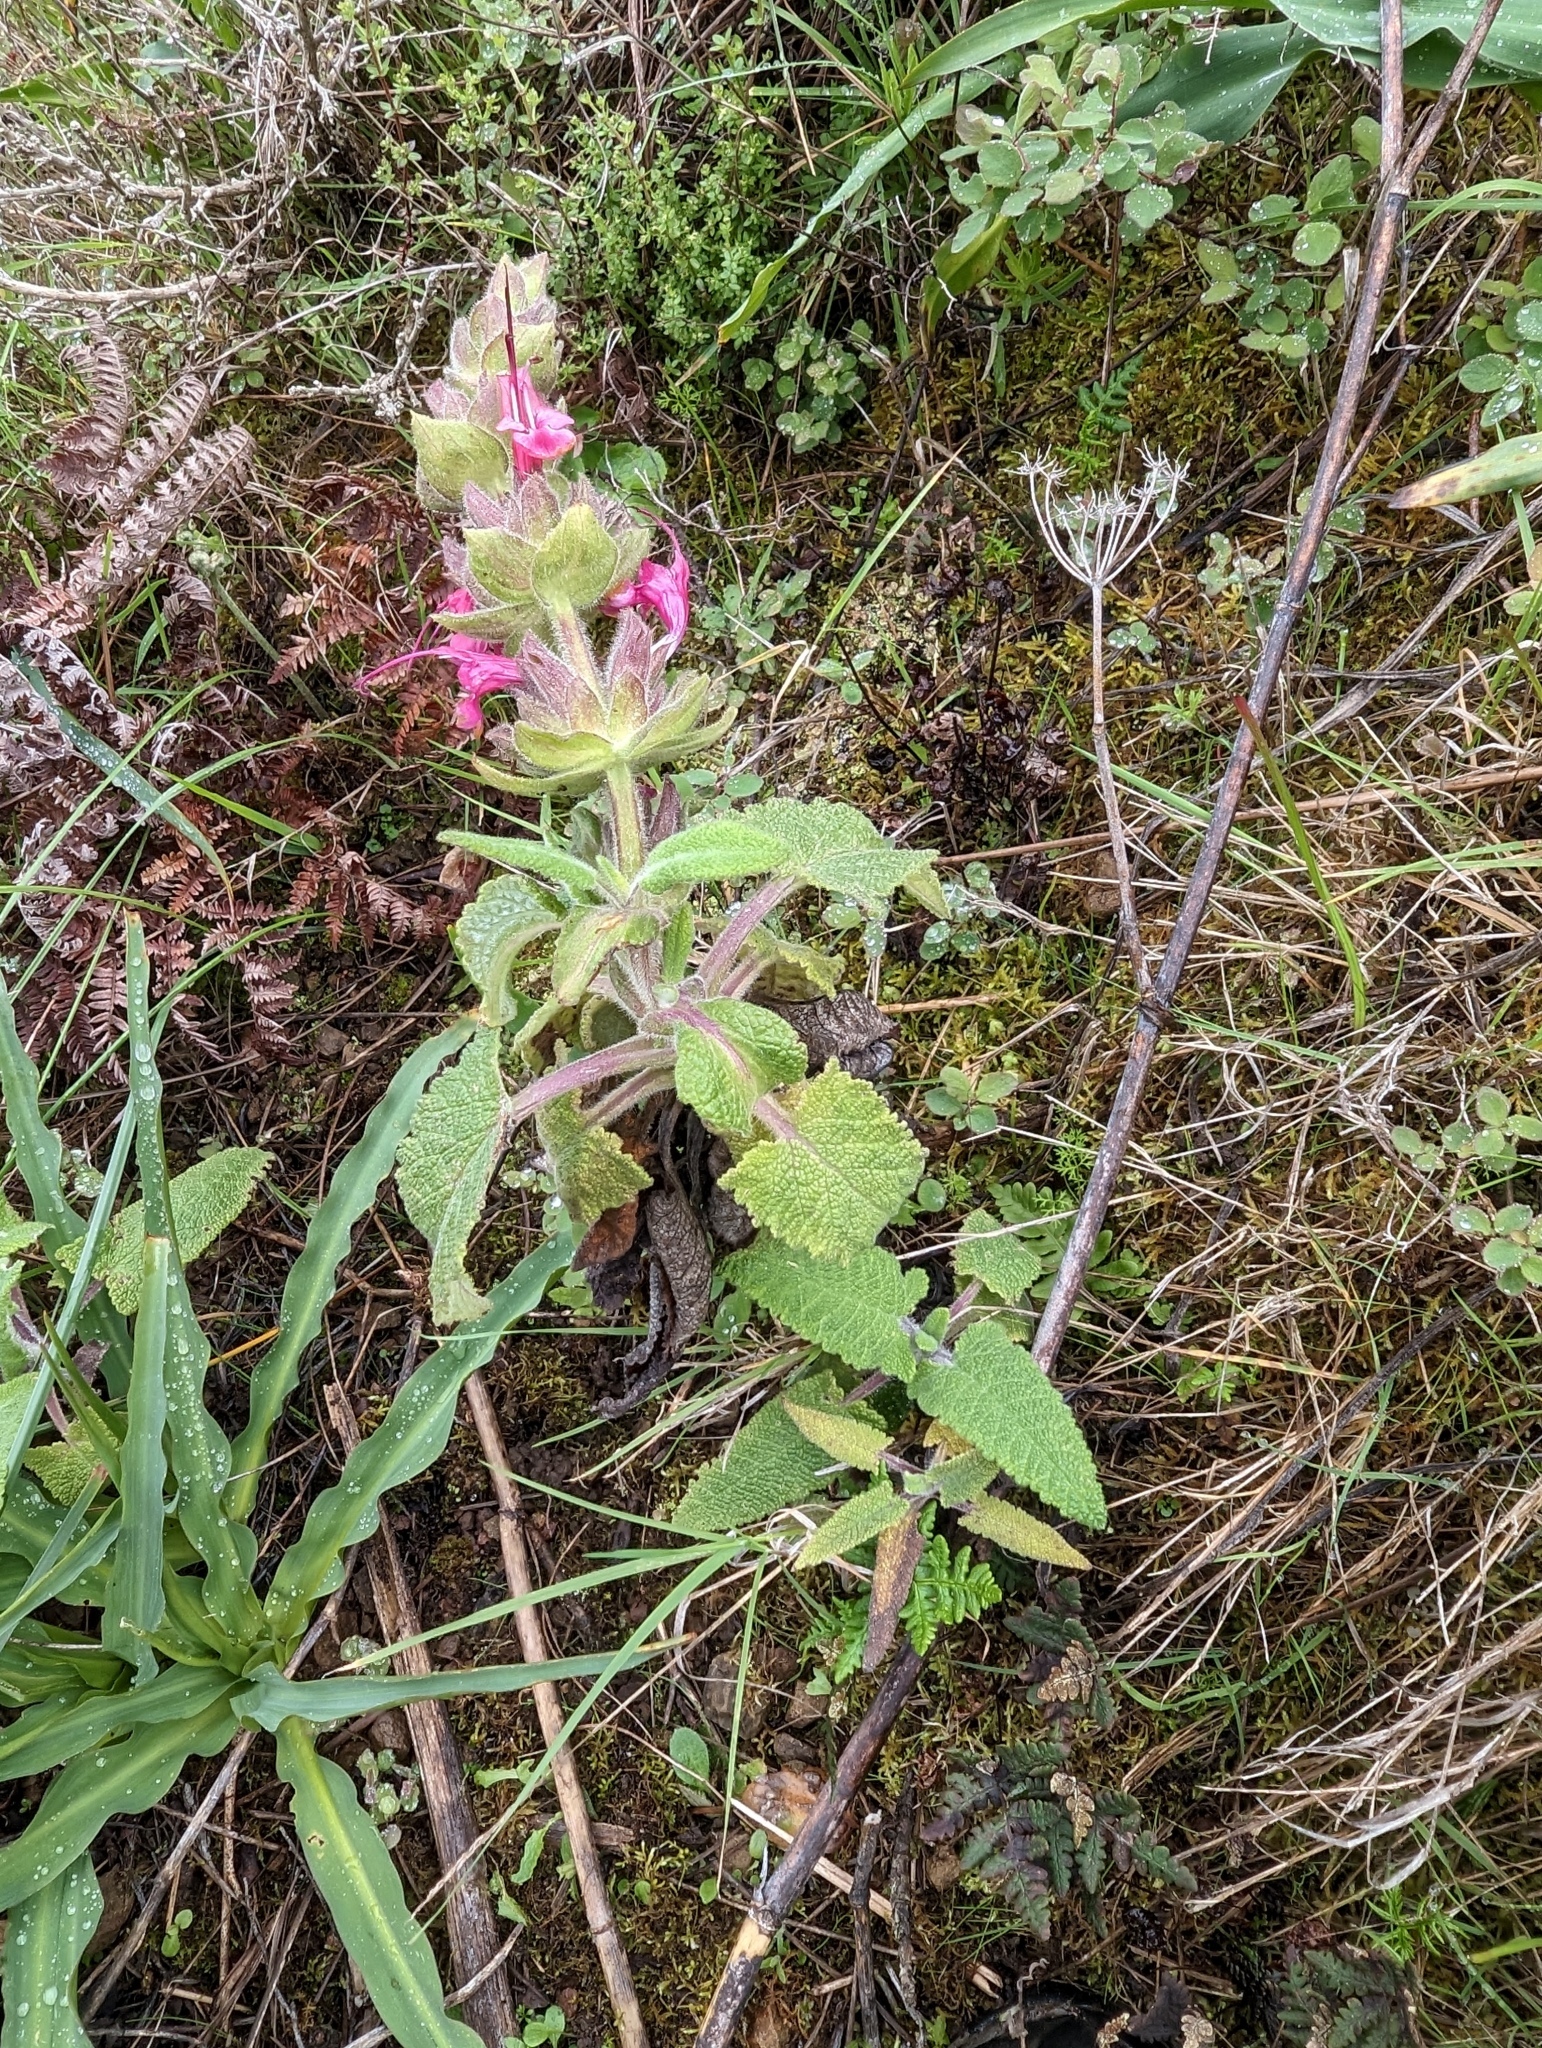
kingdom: Plantae
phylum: Tracheophyta
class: Magnoliopsida
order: Lamiales
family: Lamiaceae
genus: Salvia
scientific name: Salvia spathacea
